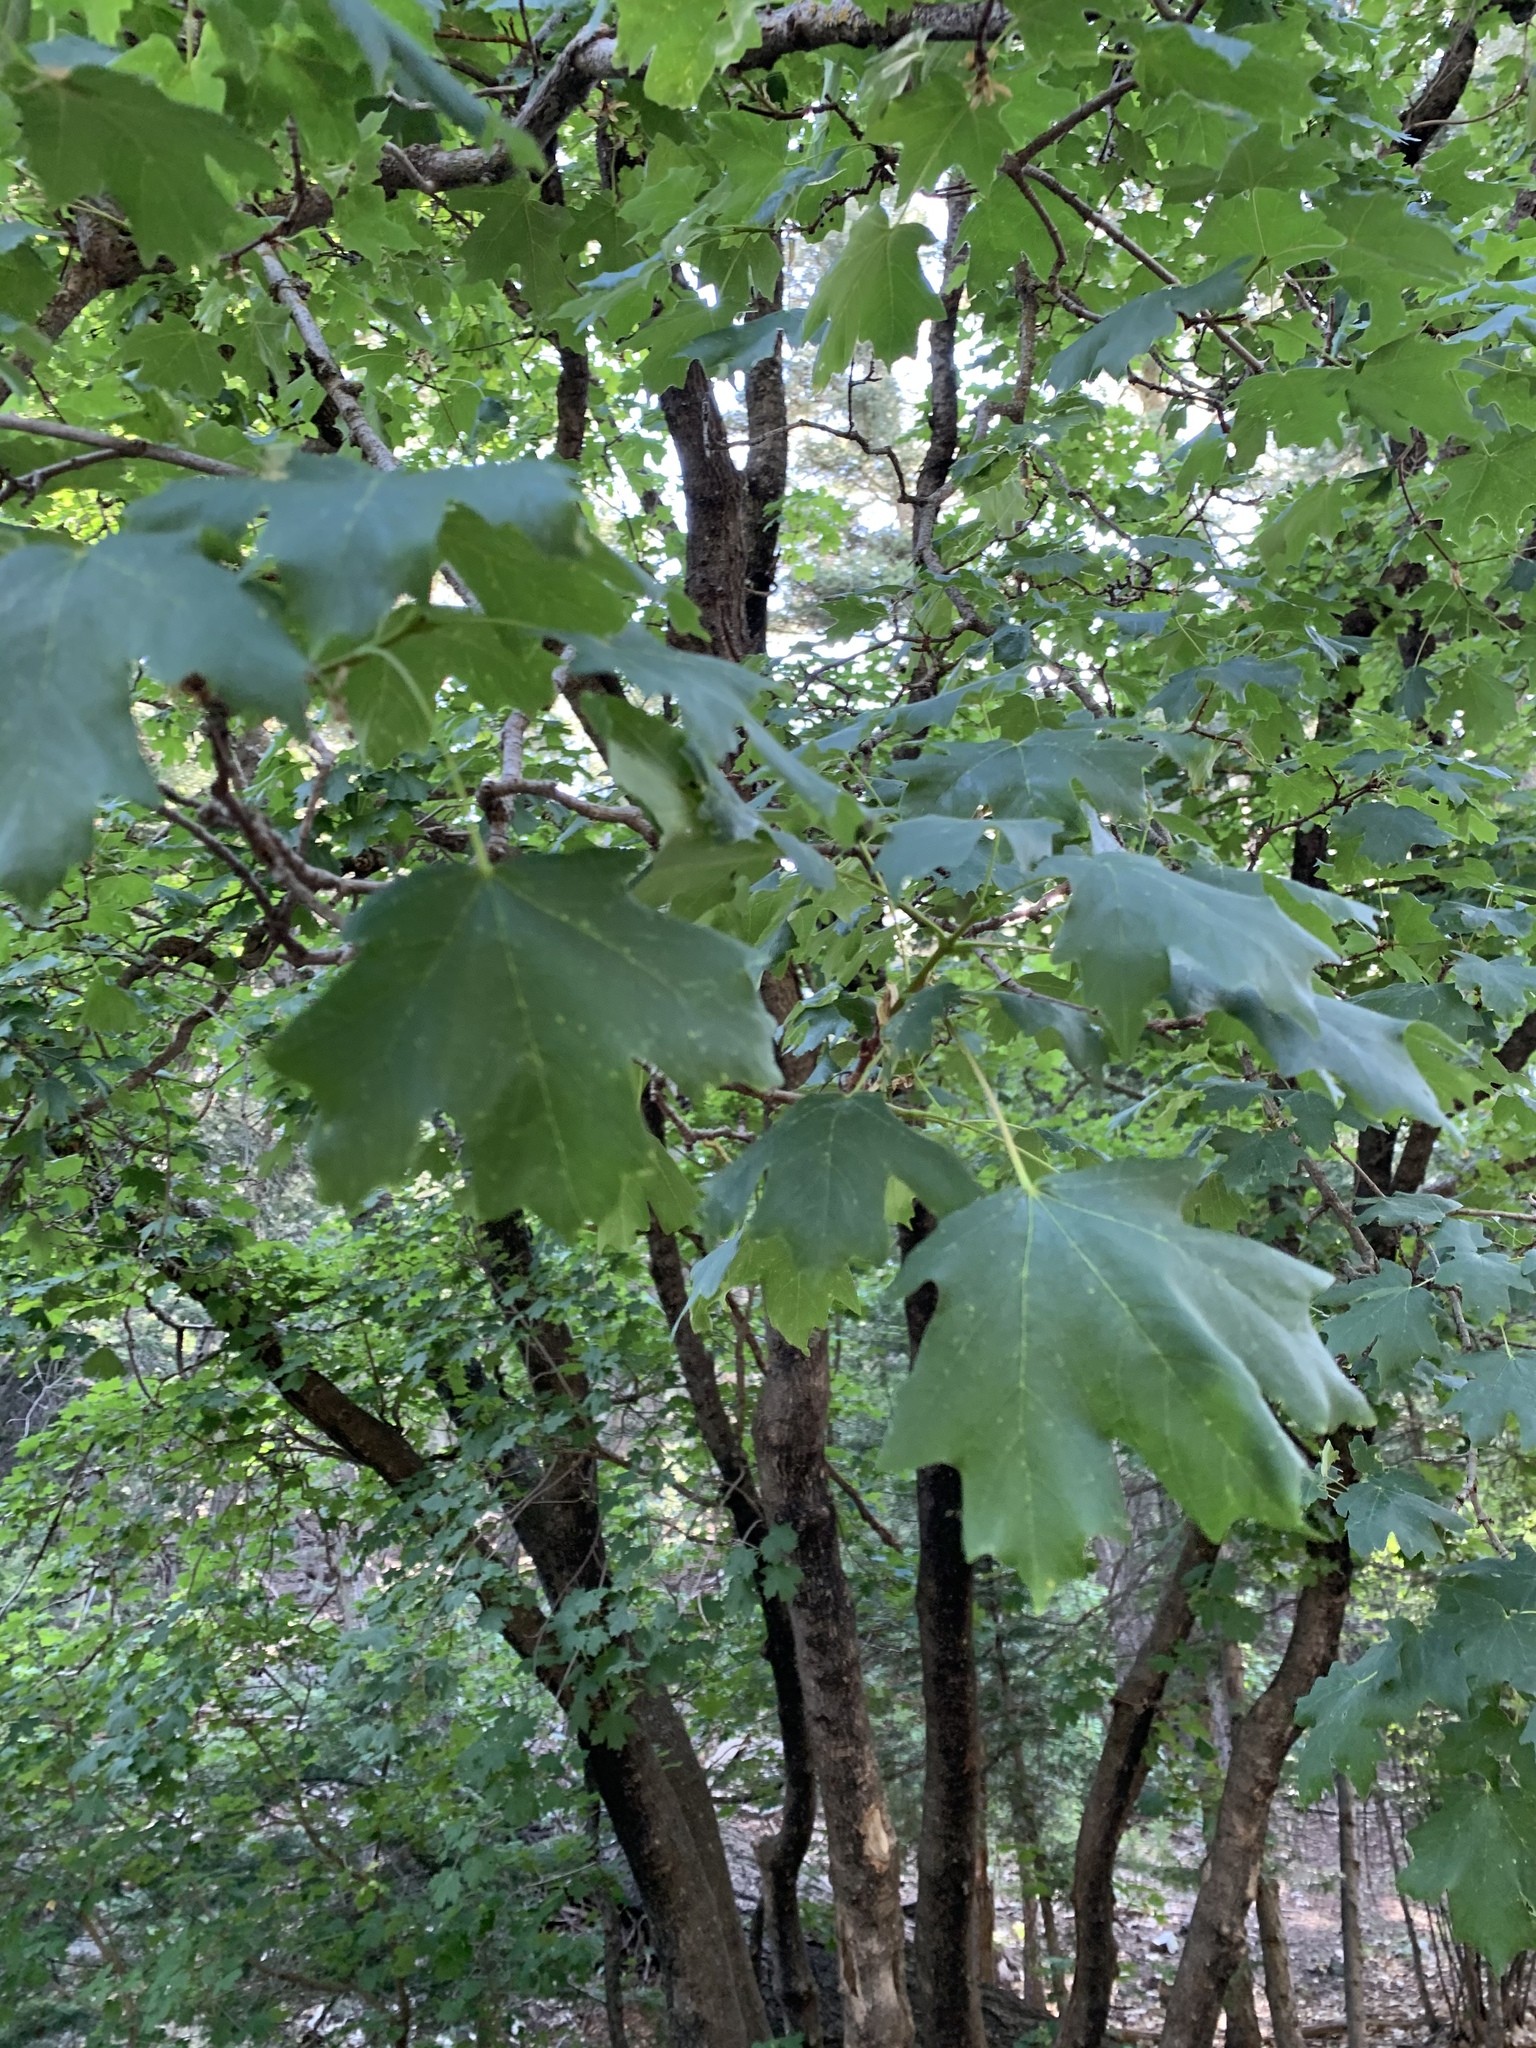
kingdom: Plantae
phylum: Tracheophyta
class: Magnoliopsida
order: Sapindales
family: Sapindaceae
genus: Acer
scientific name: Acer grandidentatum
